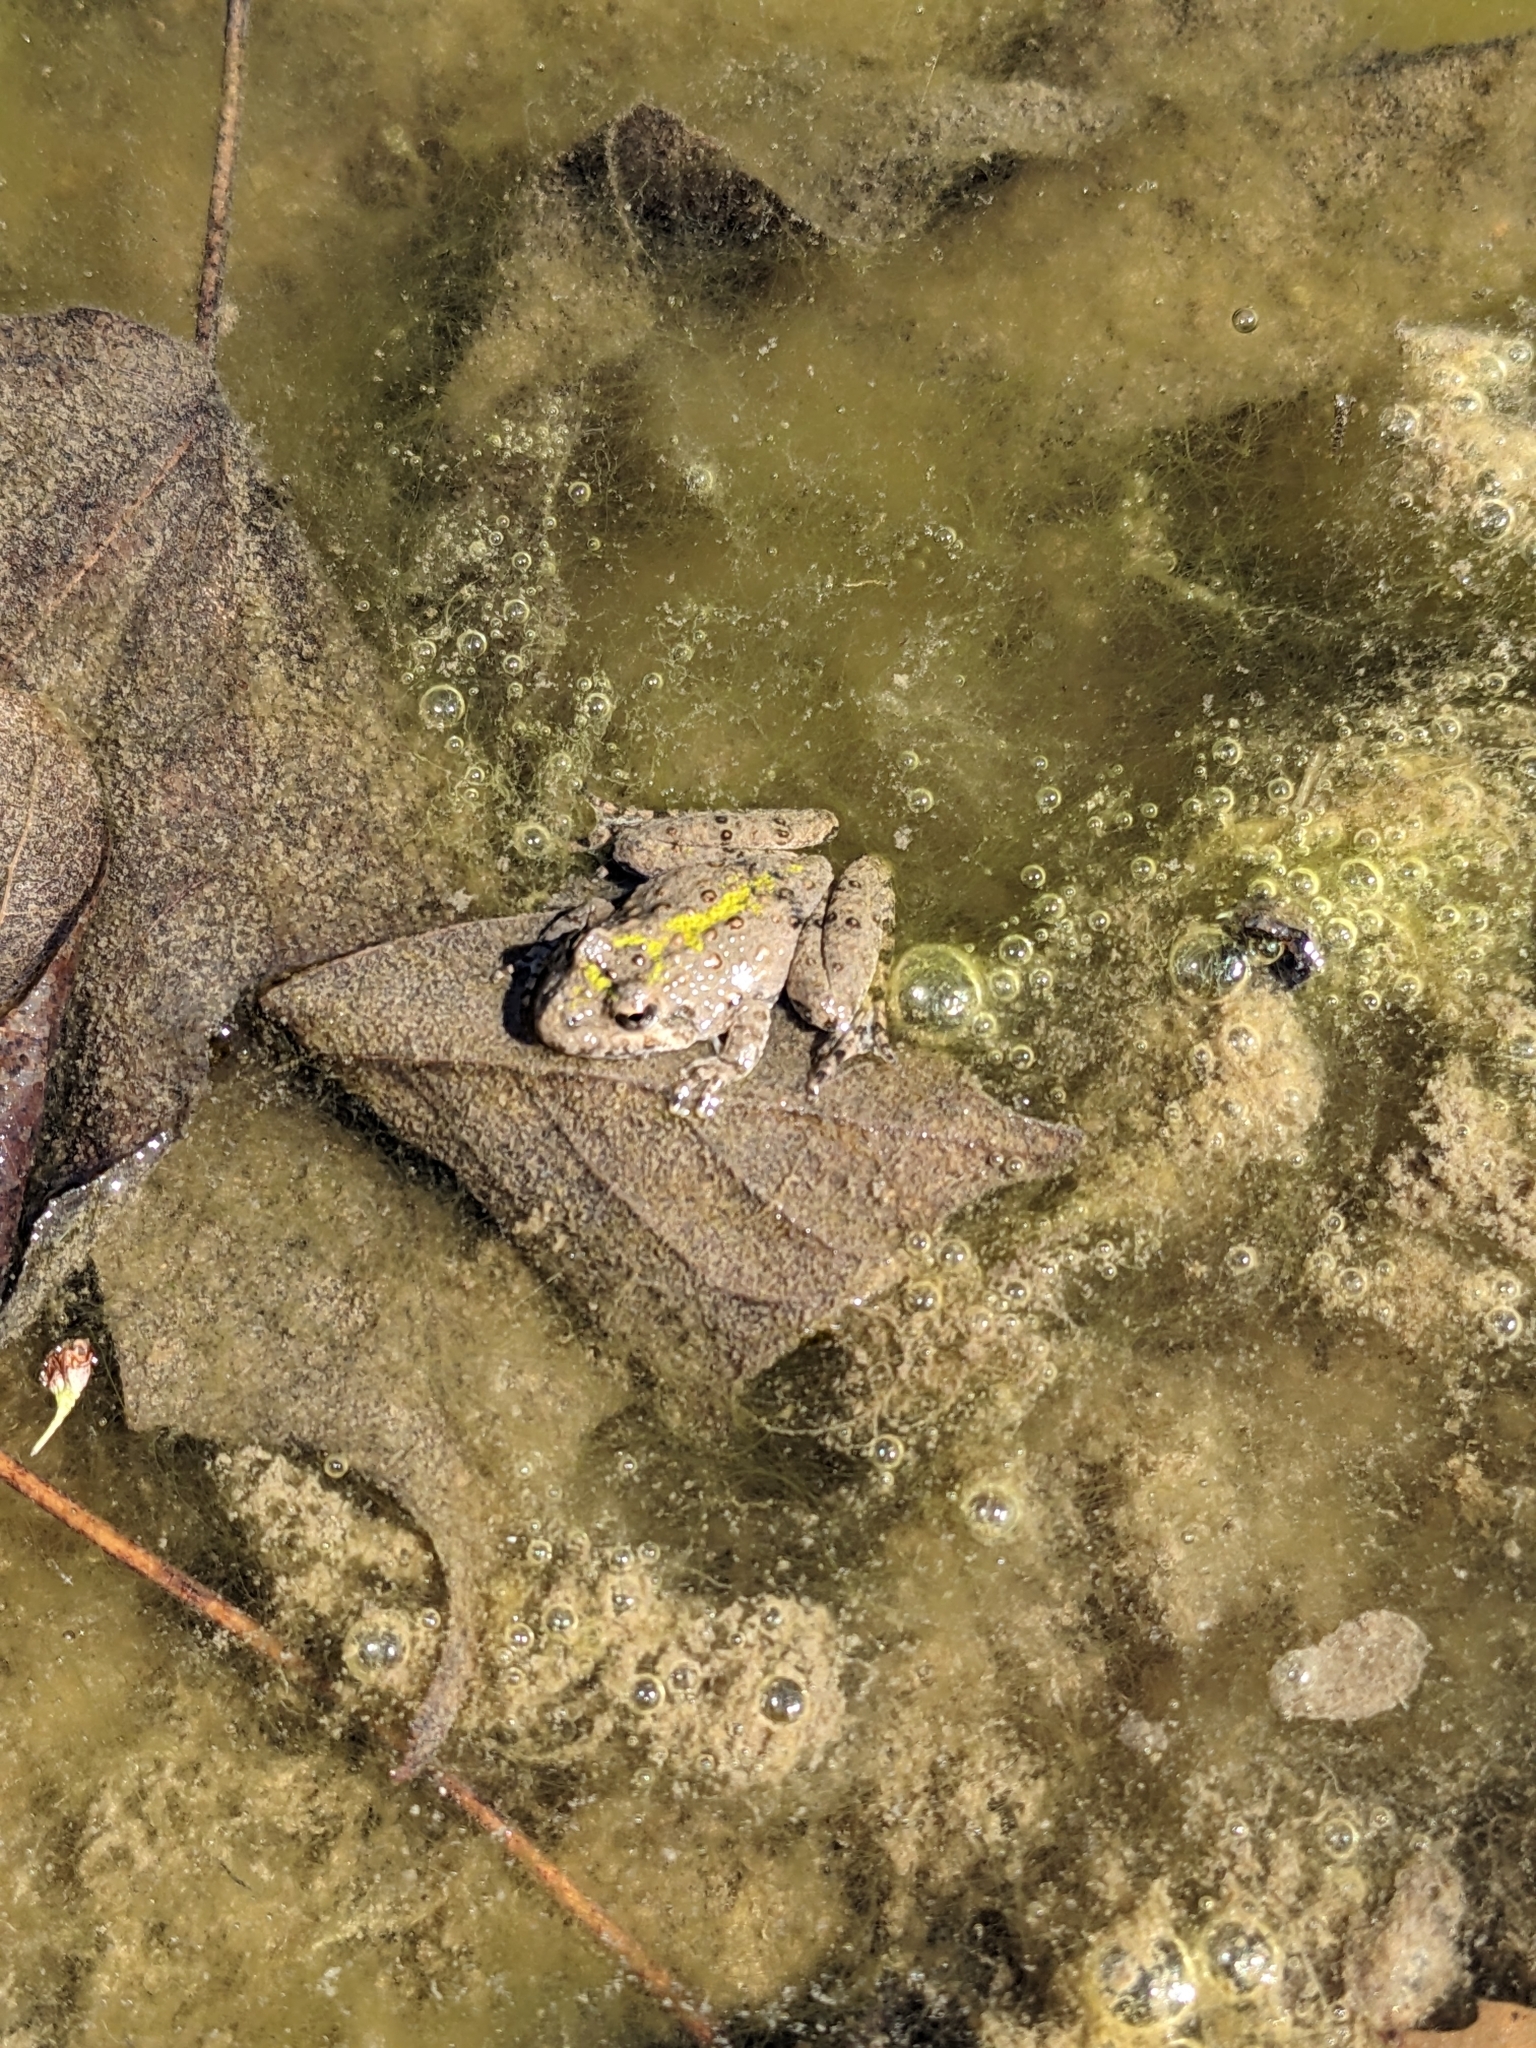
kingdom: Animalia
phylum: Chordata
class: Amphibia
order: Anura
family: Hylidae
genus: Acris
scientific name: Acris blanchardi
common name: Blanchard's cricket frog
